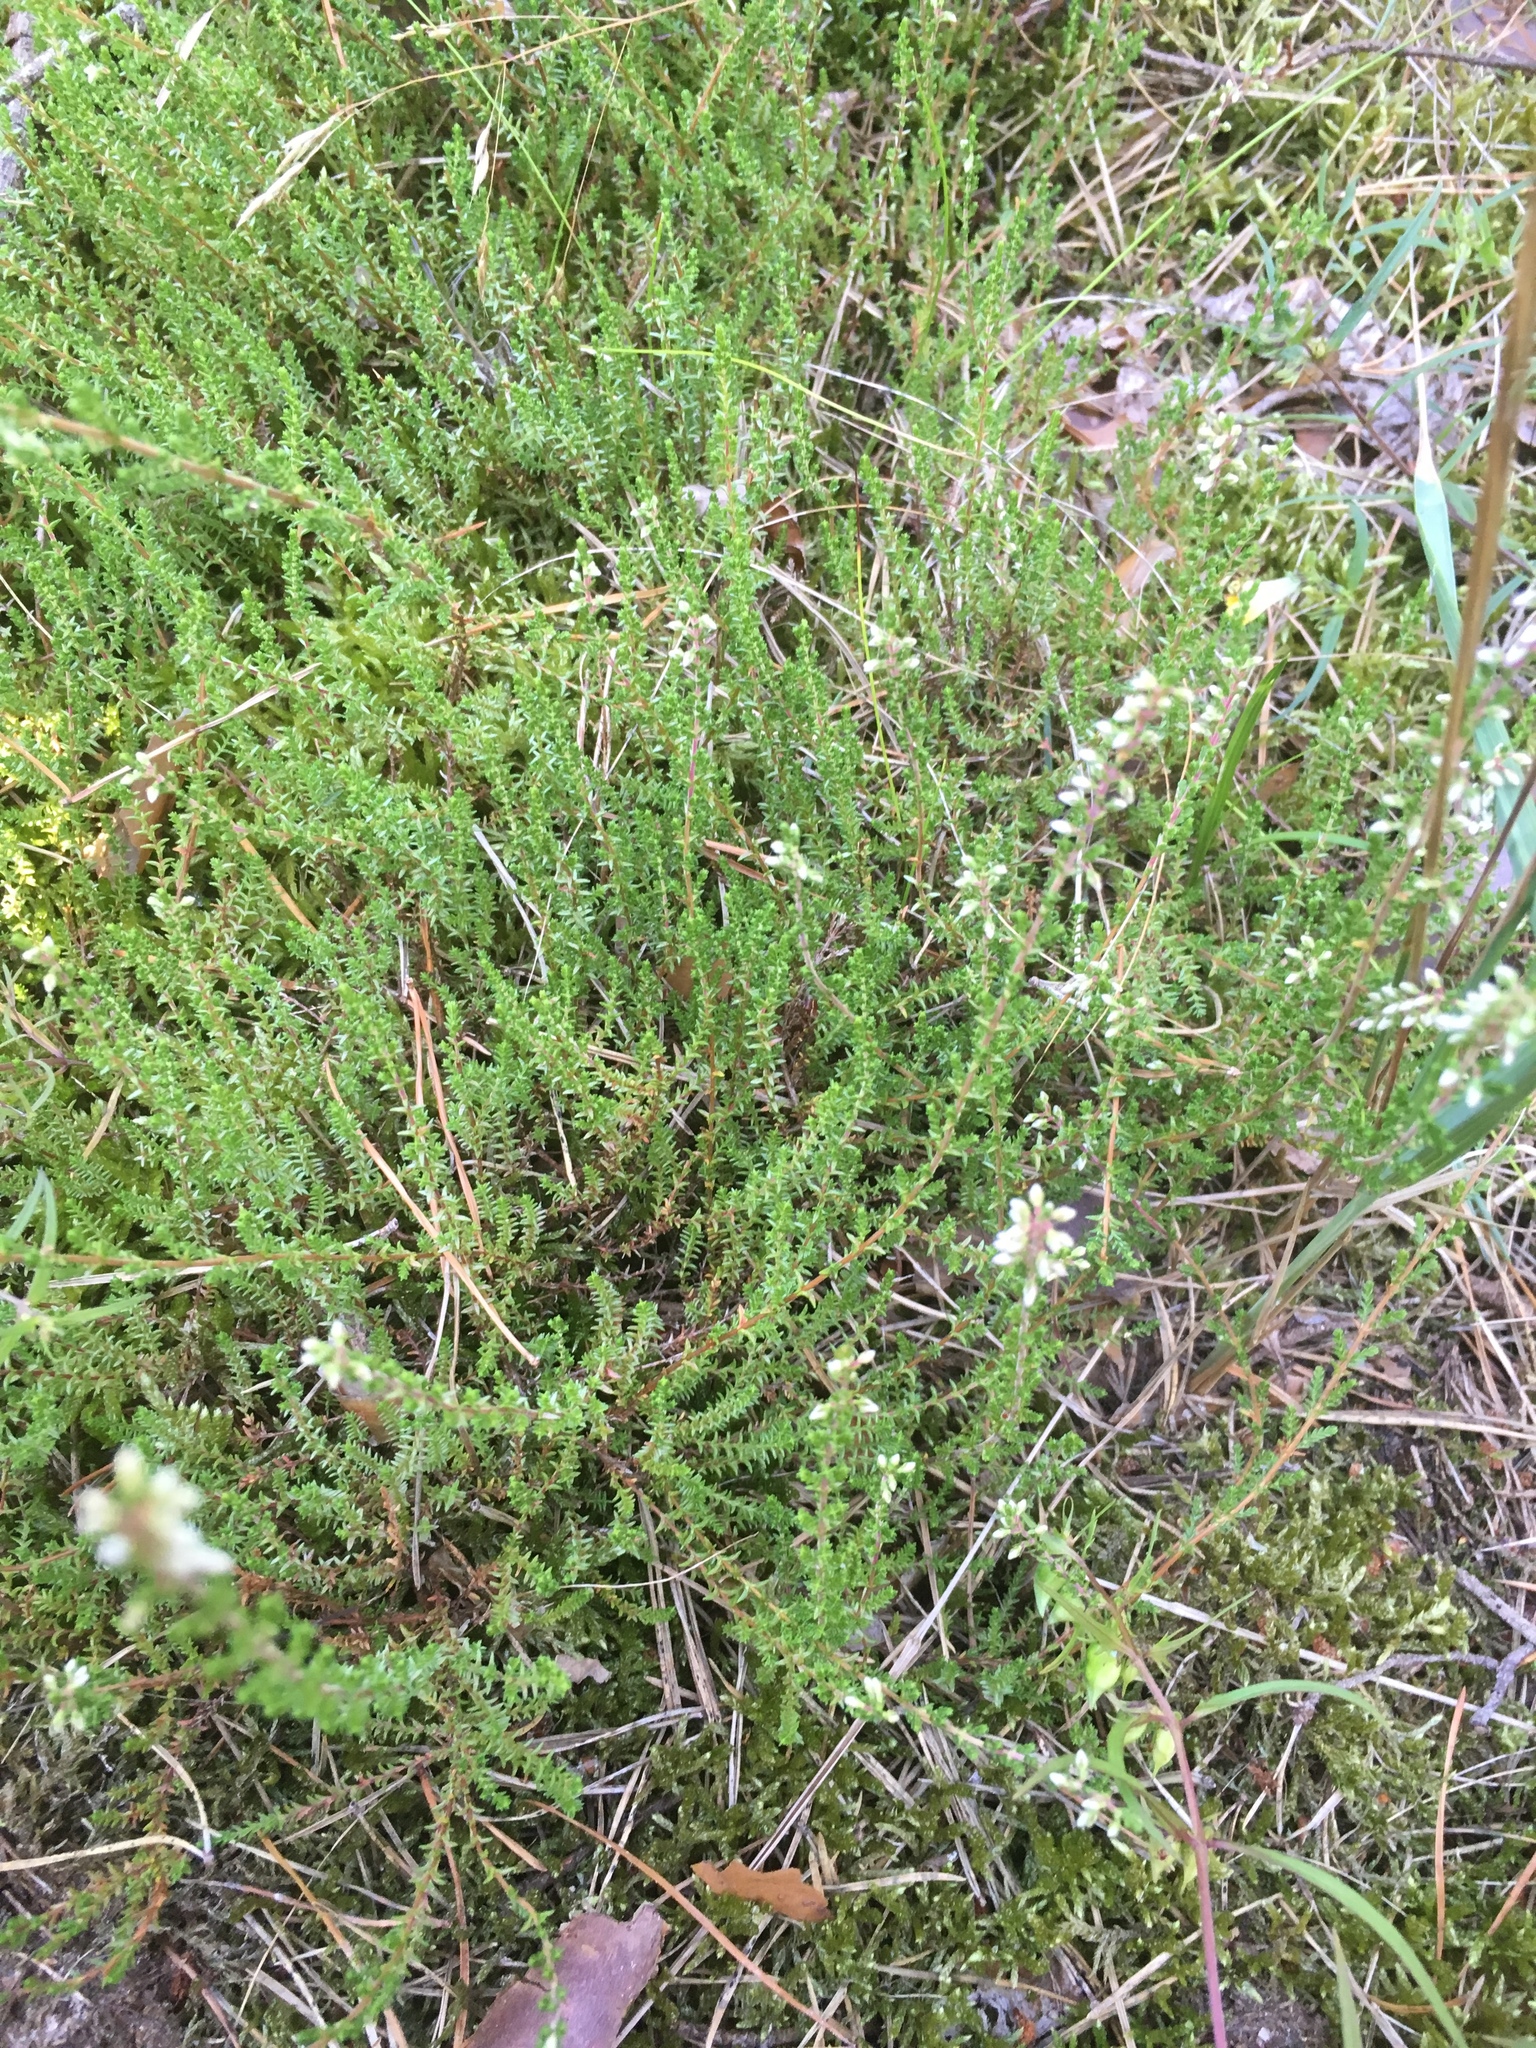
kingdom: Plantae
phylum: Tracheophyta
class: Magnoliopsida
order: Ericales
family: Ericaceae
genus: Calluna
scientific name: Calluna vulgaris
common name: Heather
